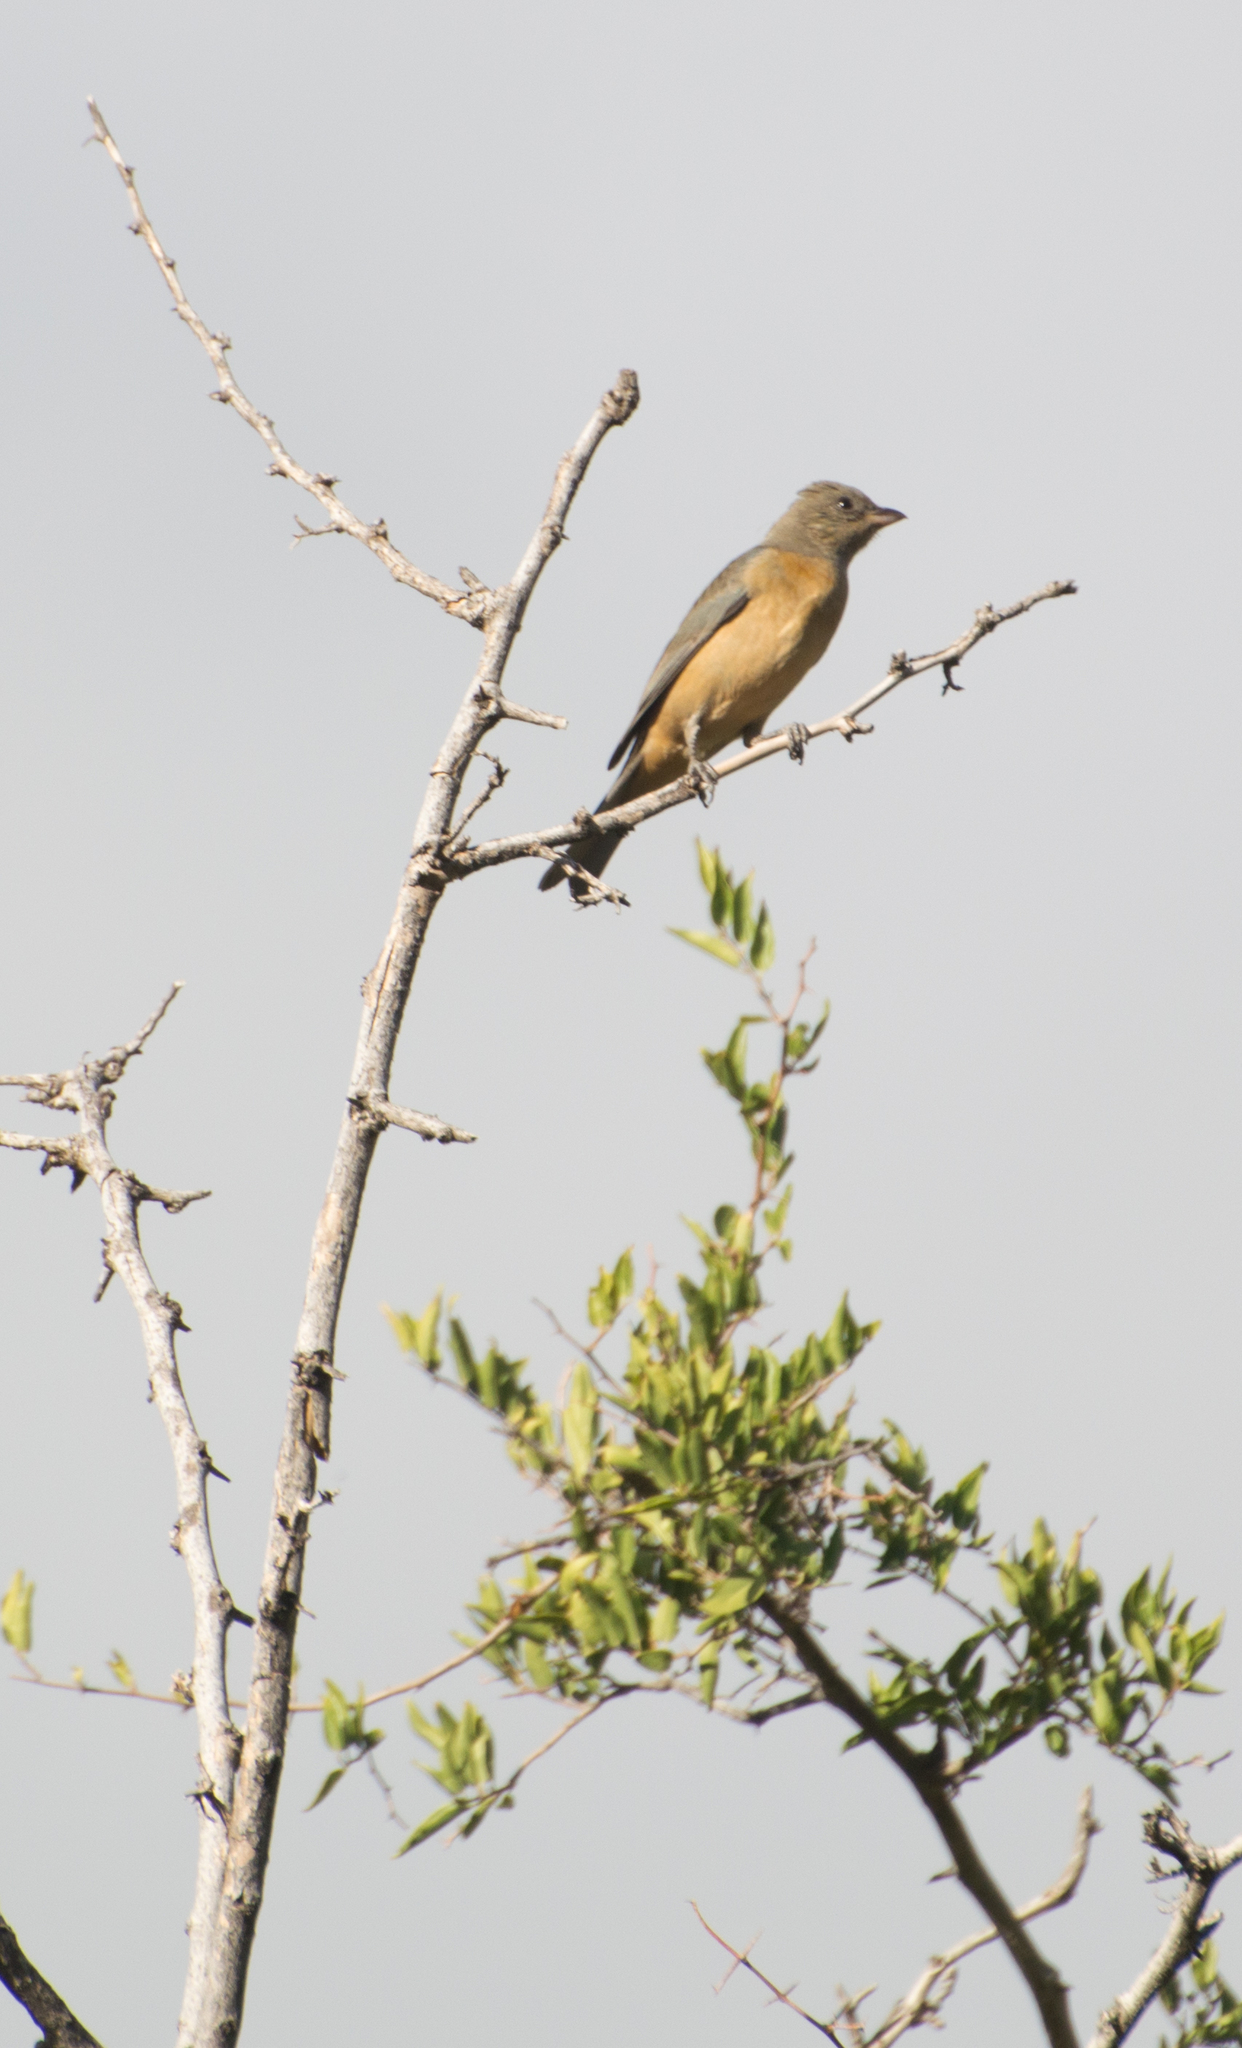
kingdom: Animalia
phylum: Chordata
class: Aves
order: Passeriformes
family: Thraupidae
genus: Rauenia
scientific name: Rauenia bonariensis
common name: Blue-and-yellow tanager
